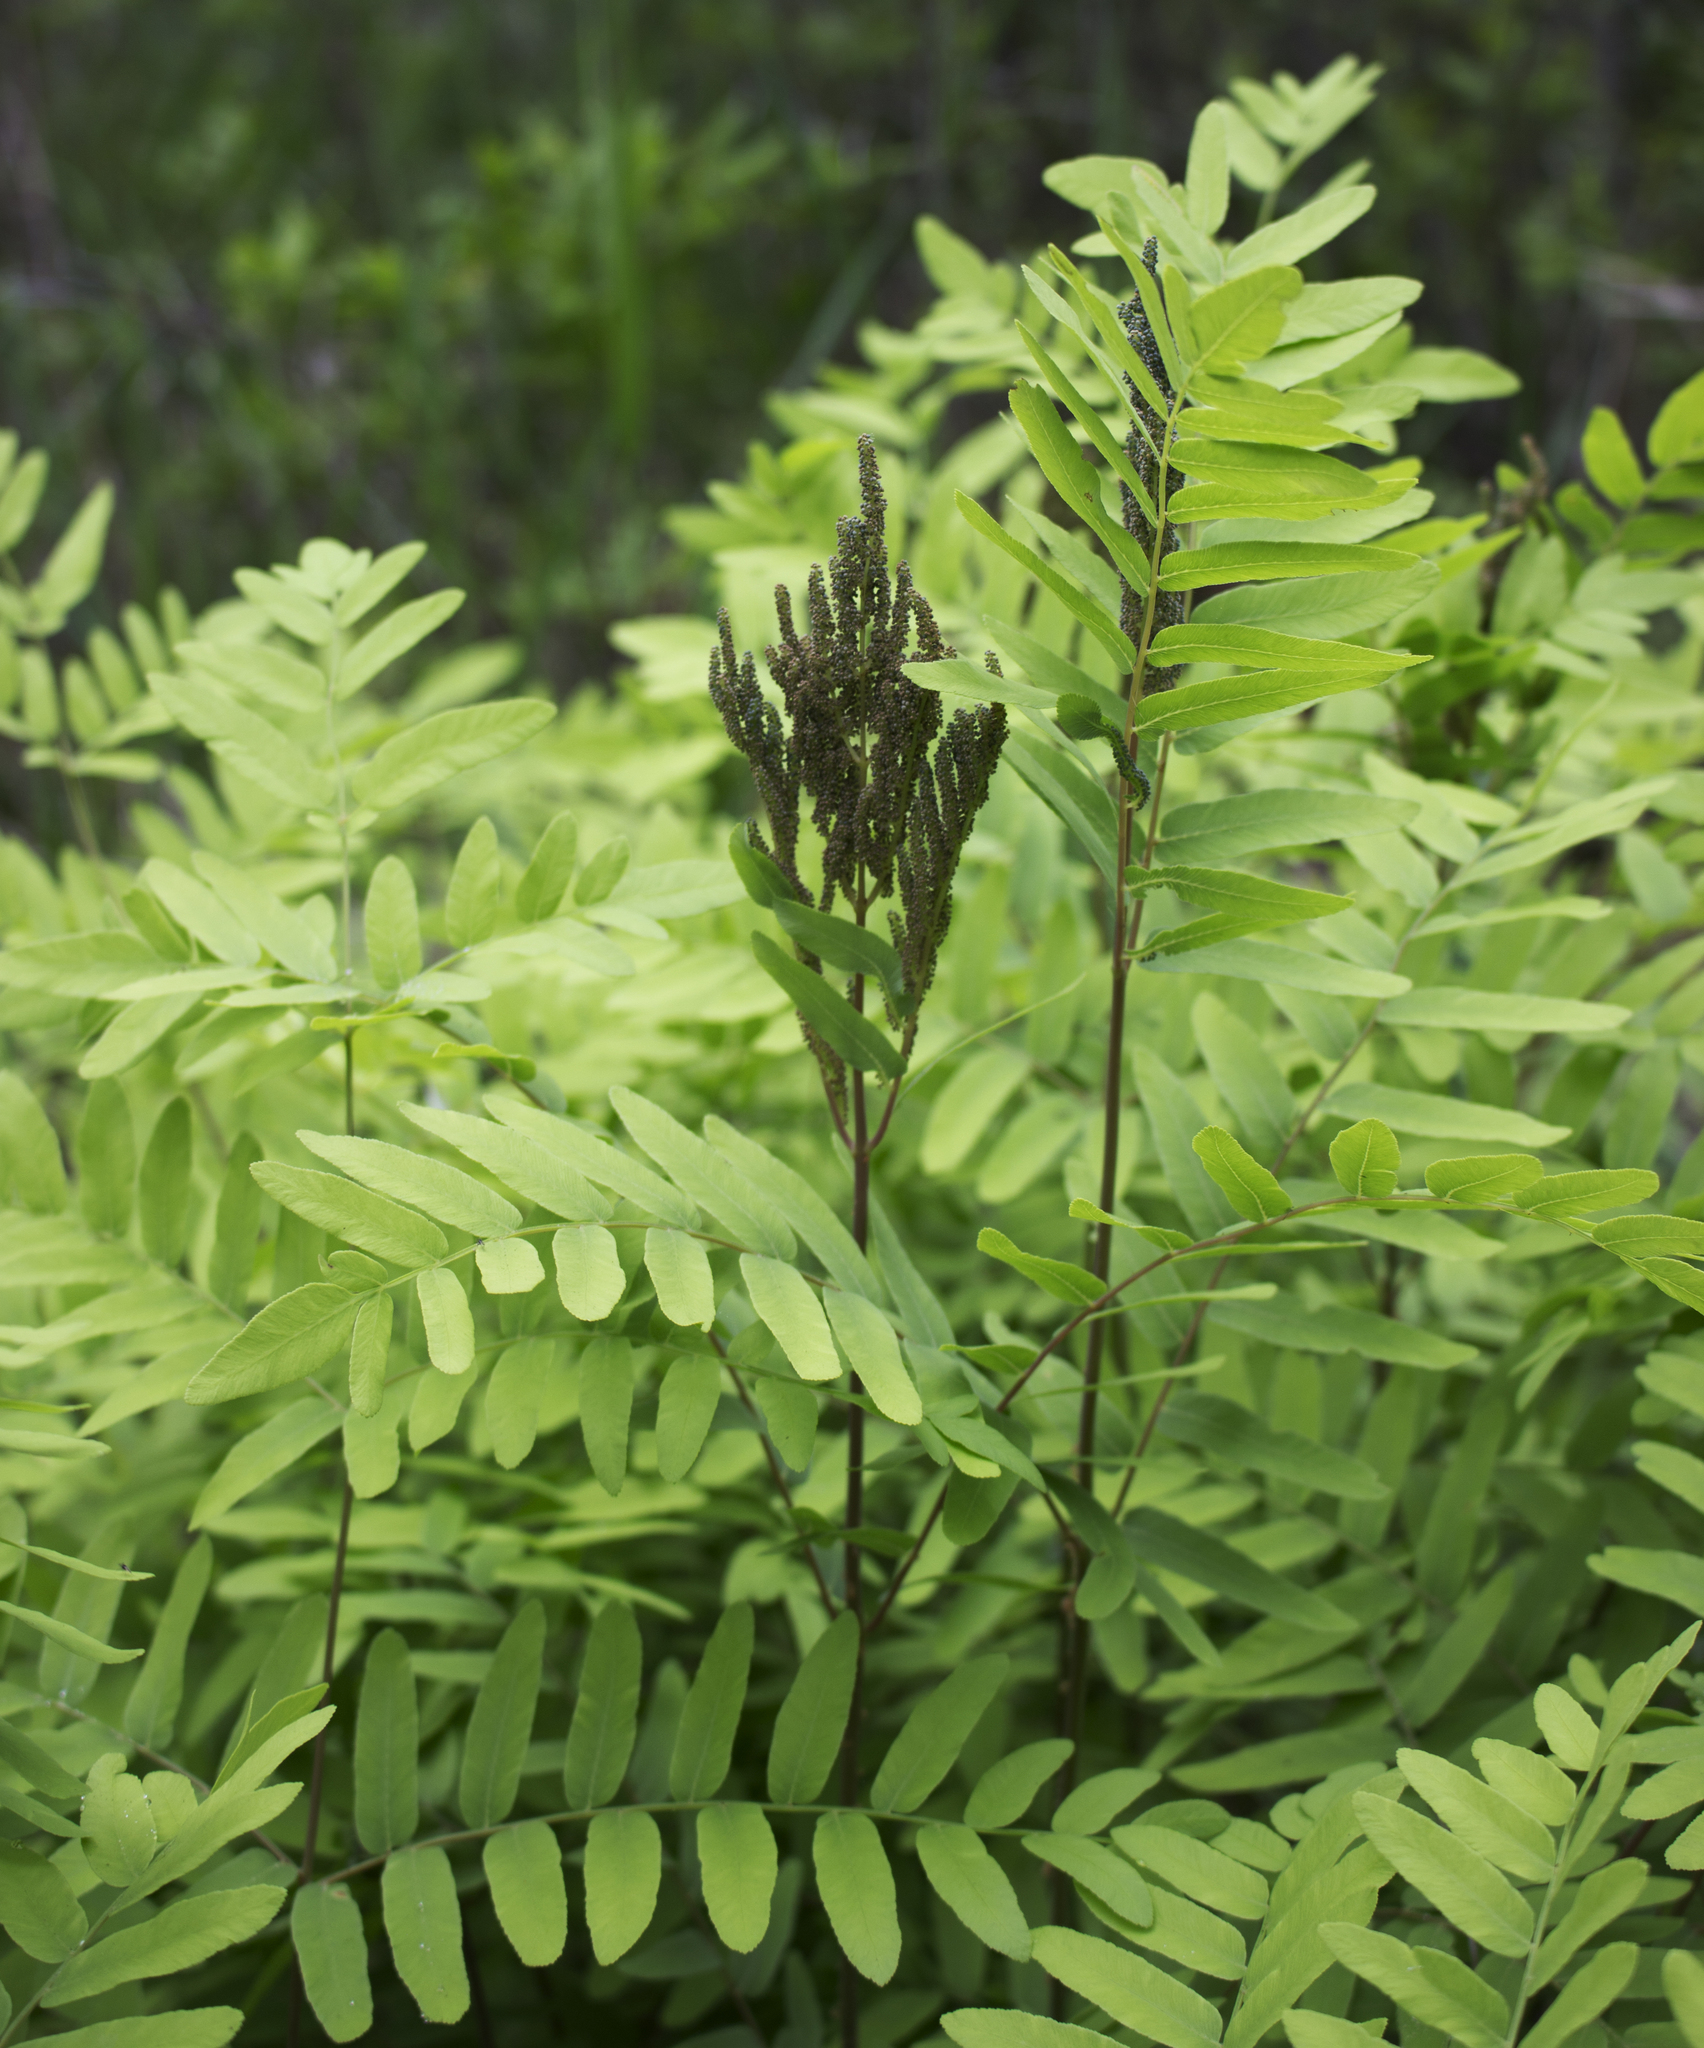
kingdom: Plantae
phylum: Tracheophyta
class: Polypodiopsida
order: Osmundales
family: Osmundaceae
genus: Osmunda
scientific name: Osmunda spectabilis
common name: American royal fern
